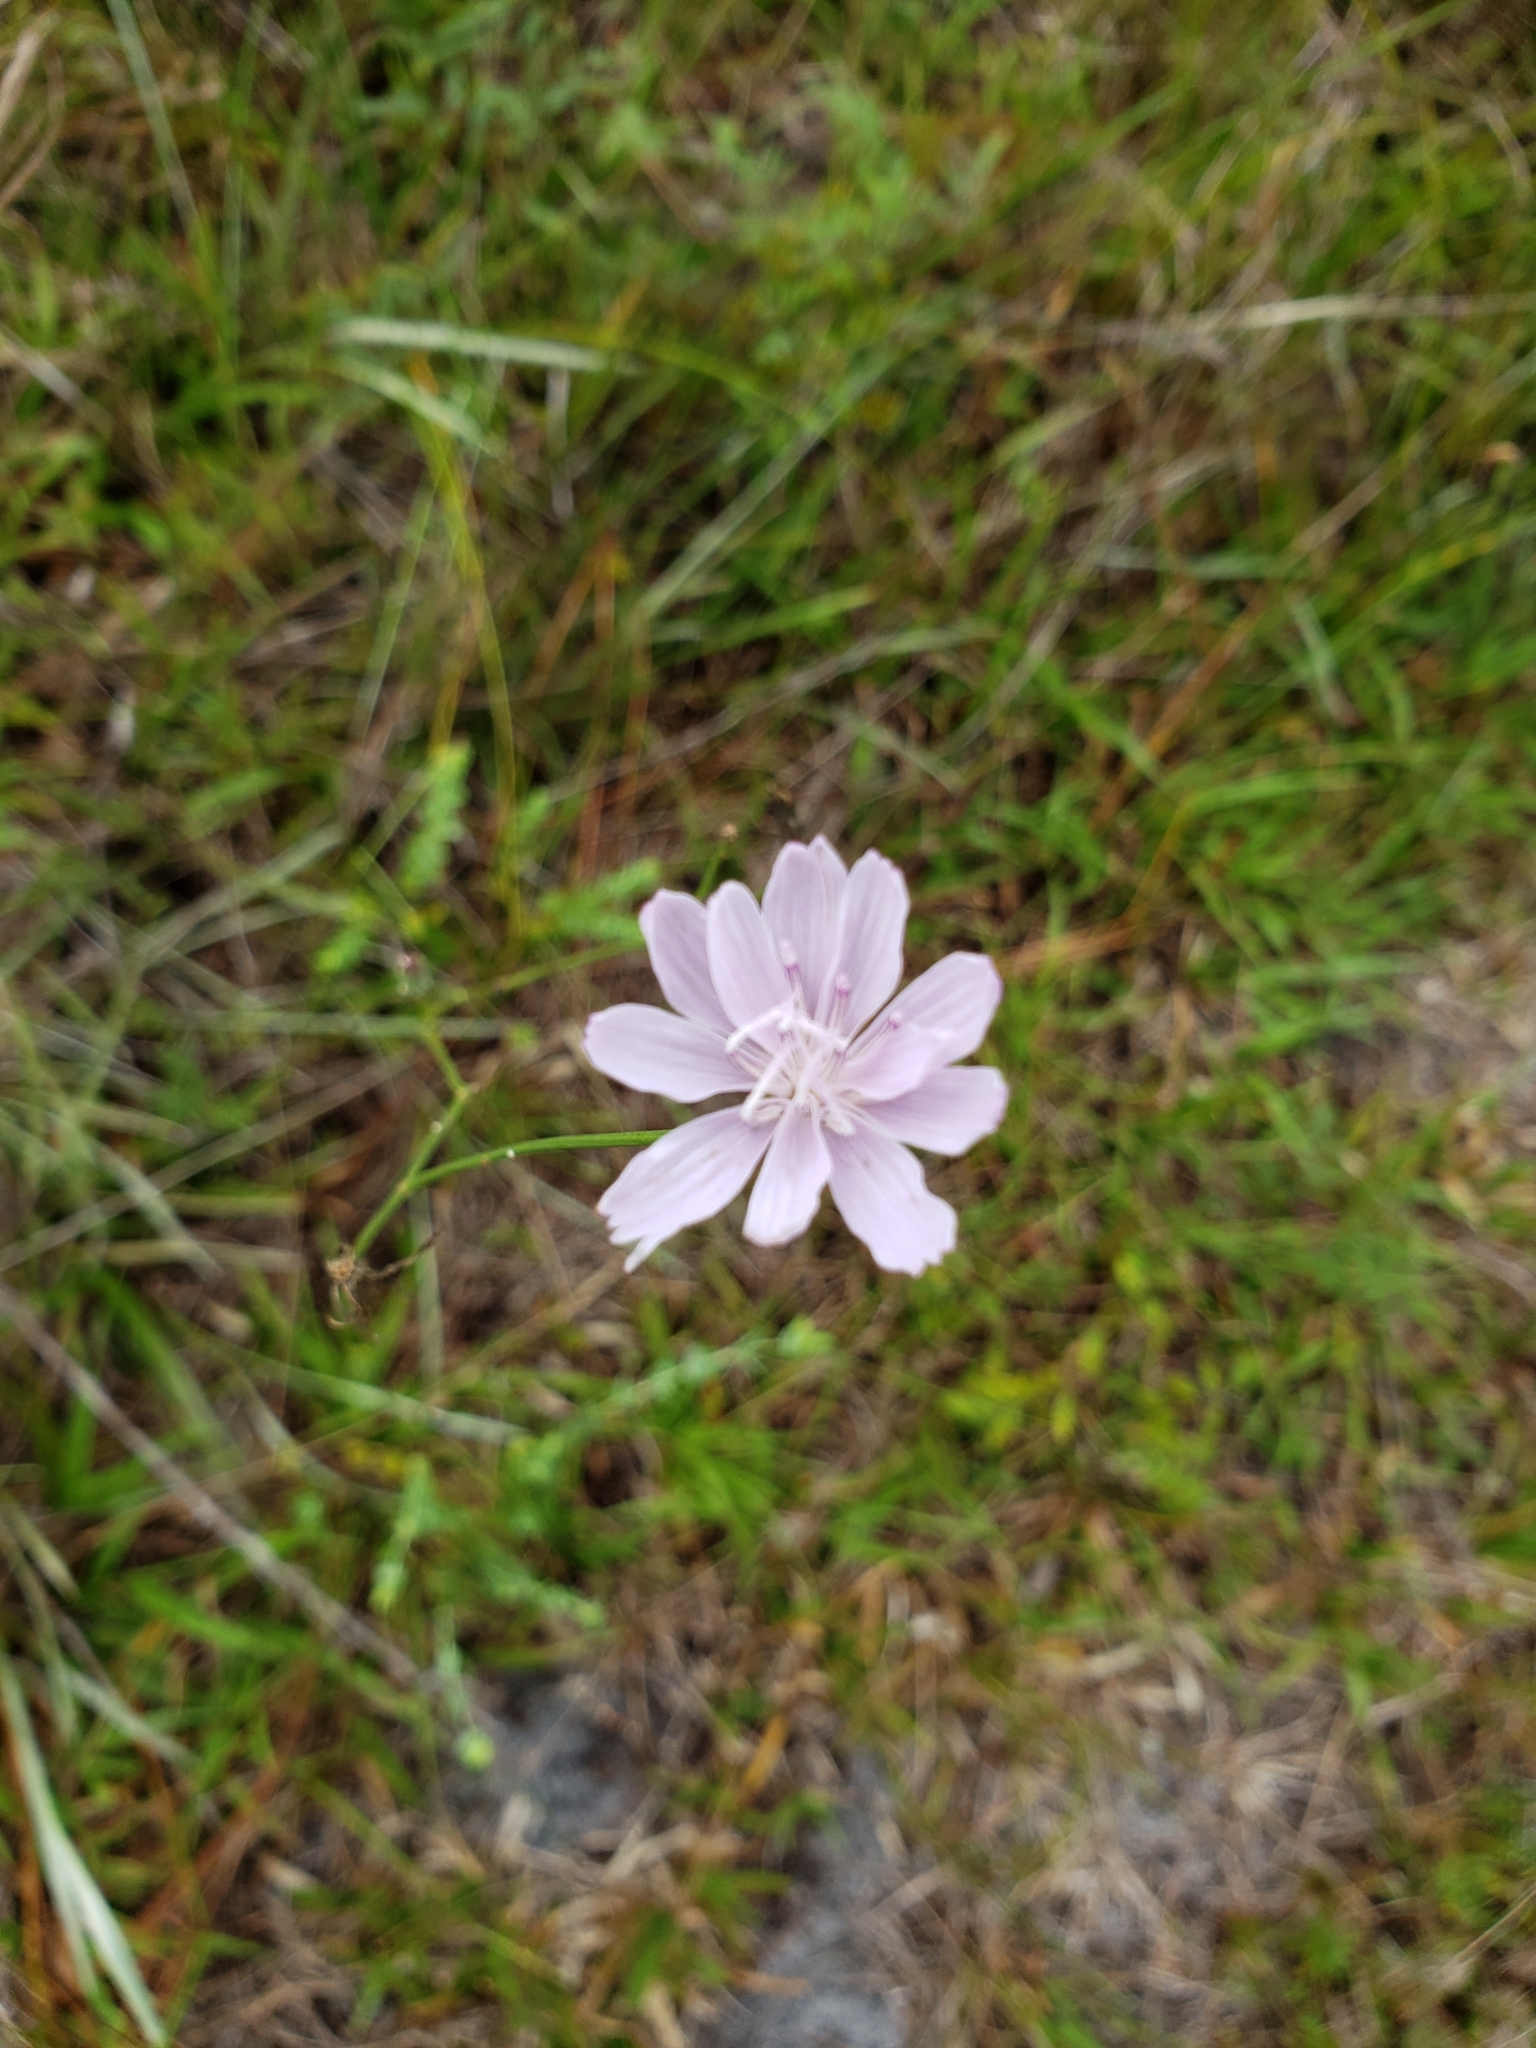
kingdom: Plantae
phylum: Tracheophyta
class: Magnoliopsida
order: Asterales
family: Asteraceae
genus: Lygodesmia
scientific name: Lygodesmia aphylla
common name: Rose-rush
